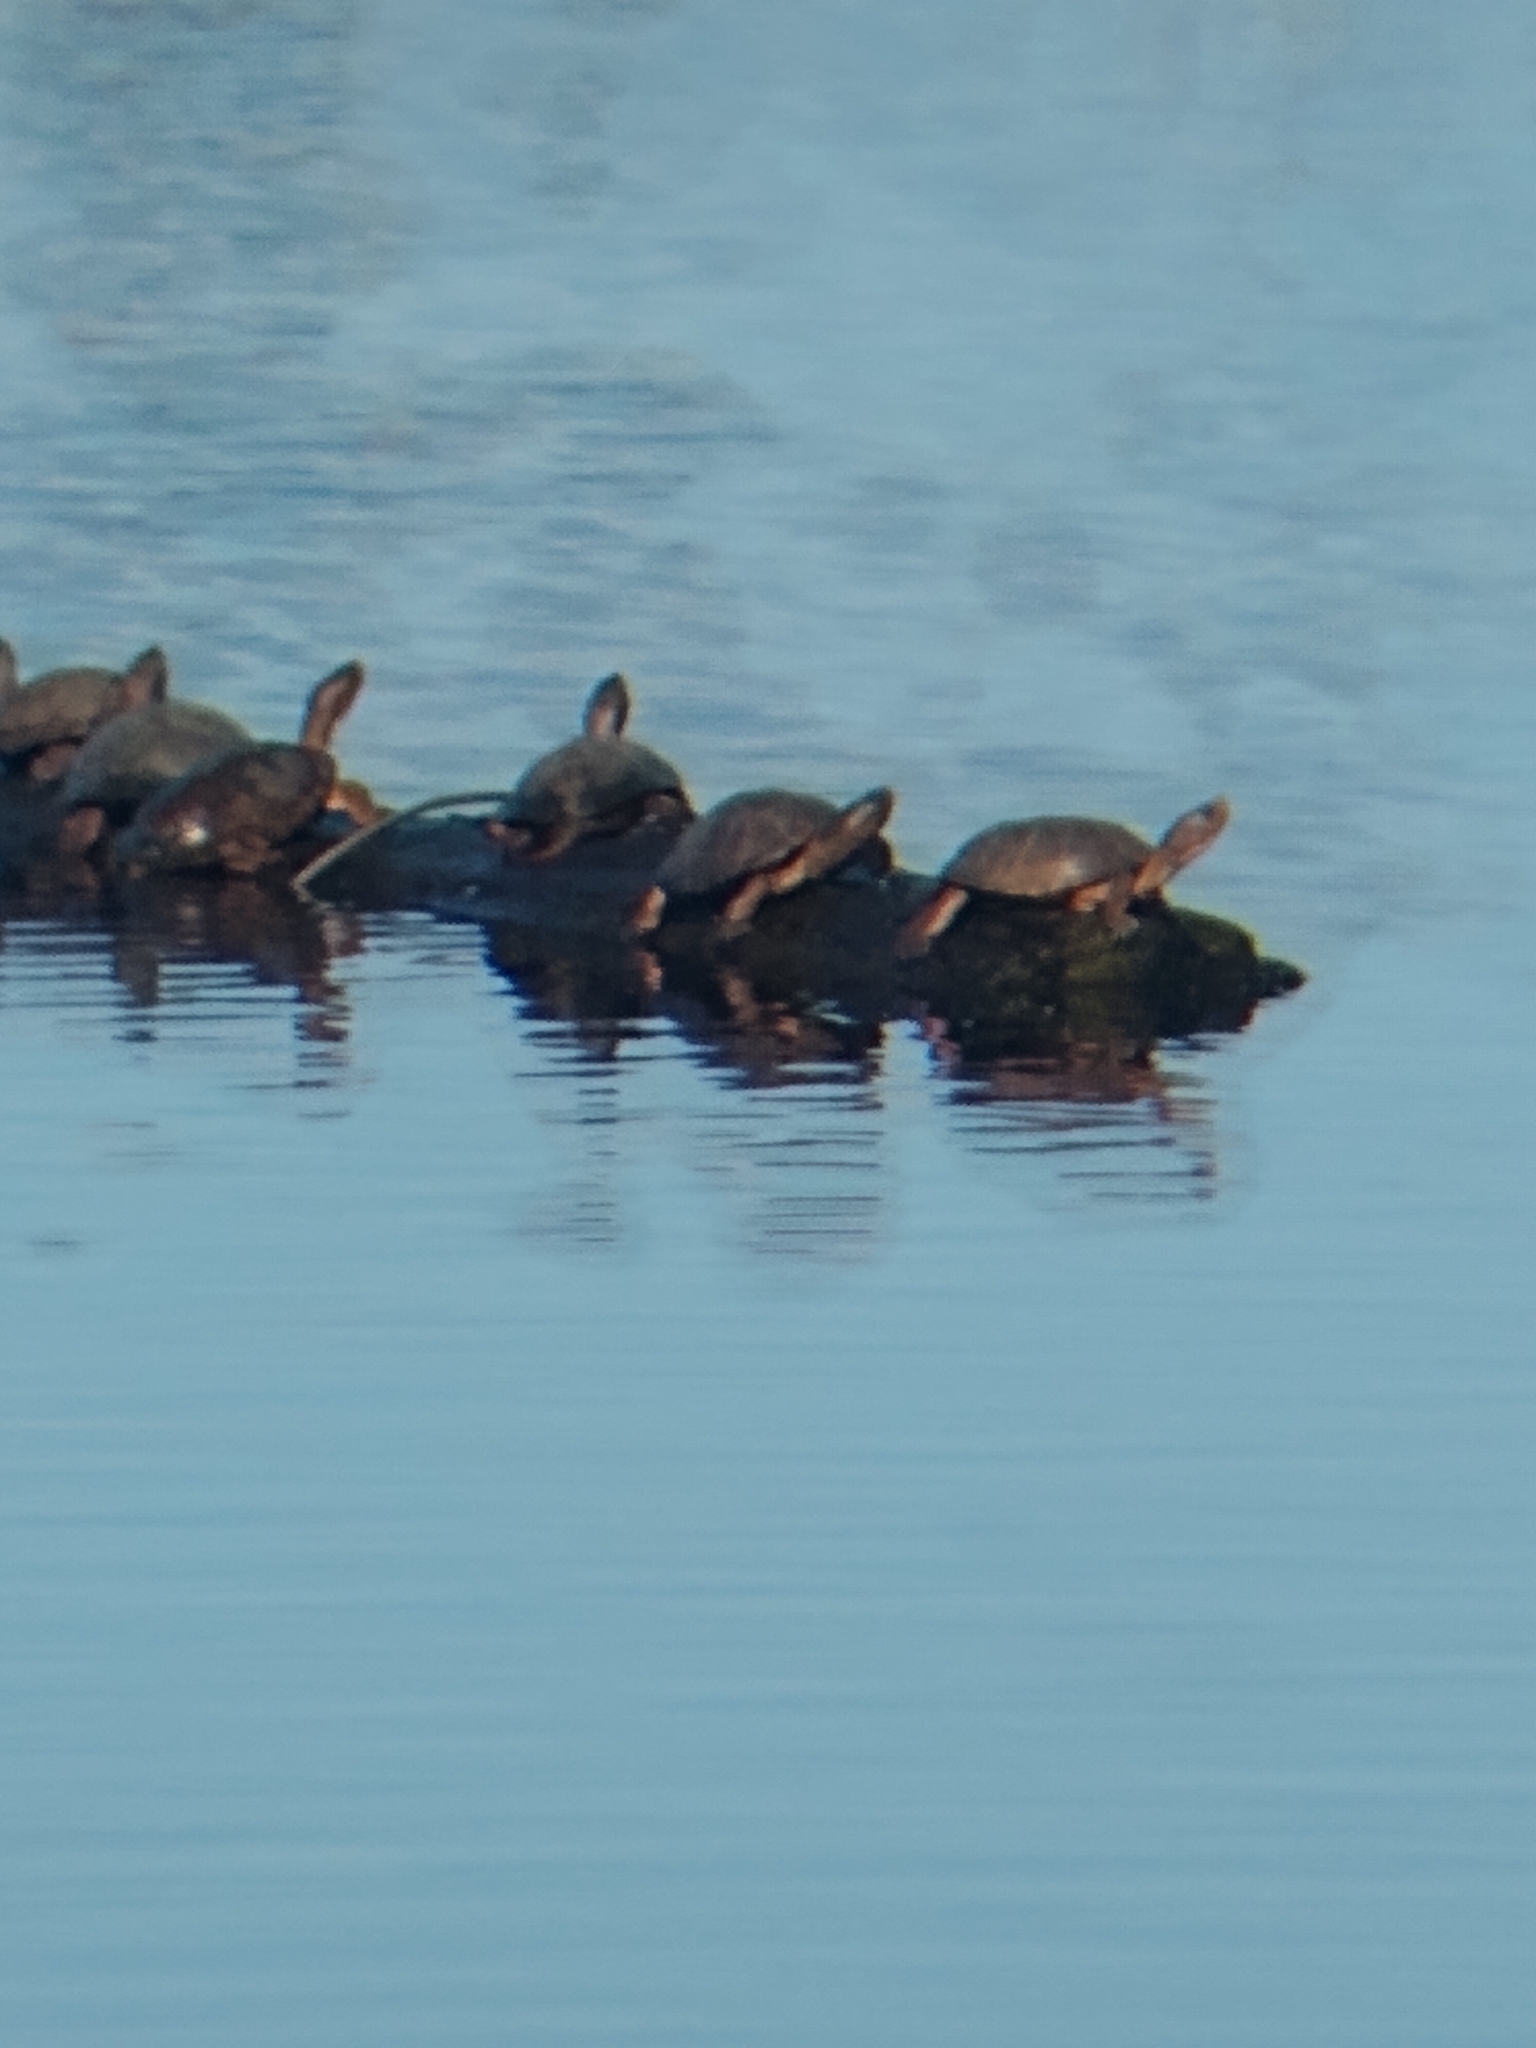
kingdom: Animalia
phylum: Chordata
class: Testudines
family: Emydidae
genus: Actinemys
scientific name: Actinemys marmorata
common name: Western pond turtle
